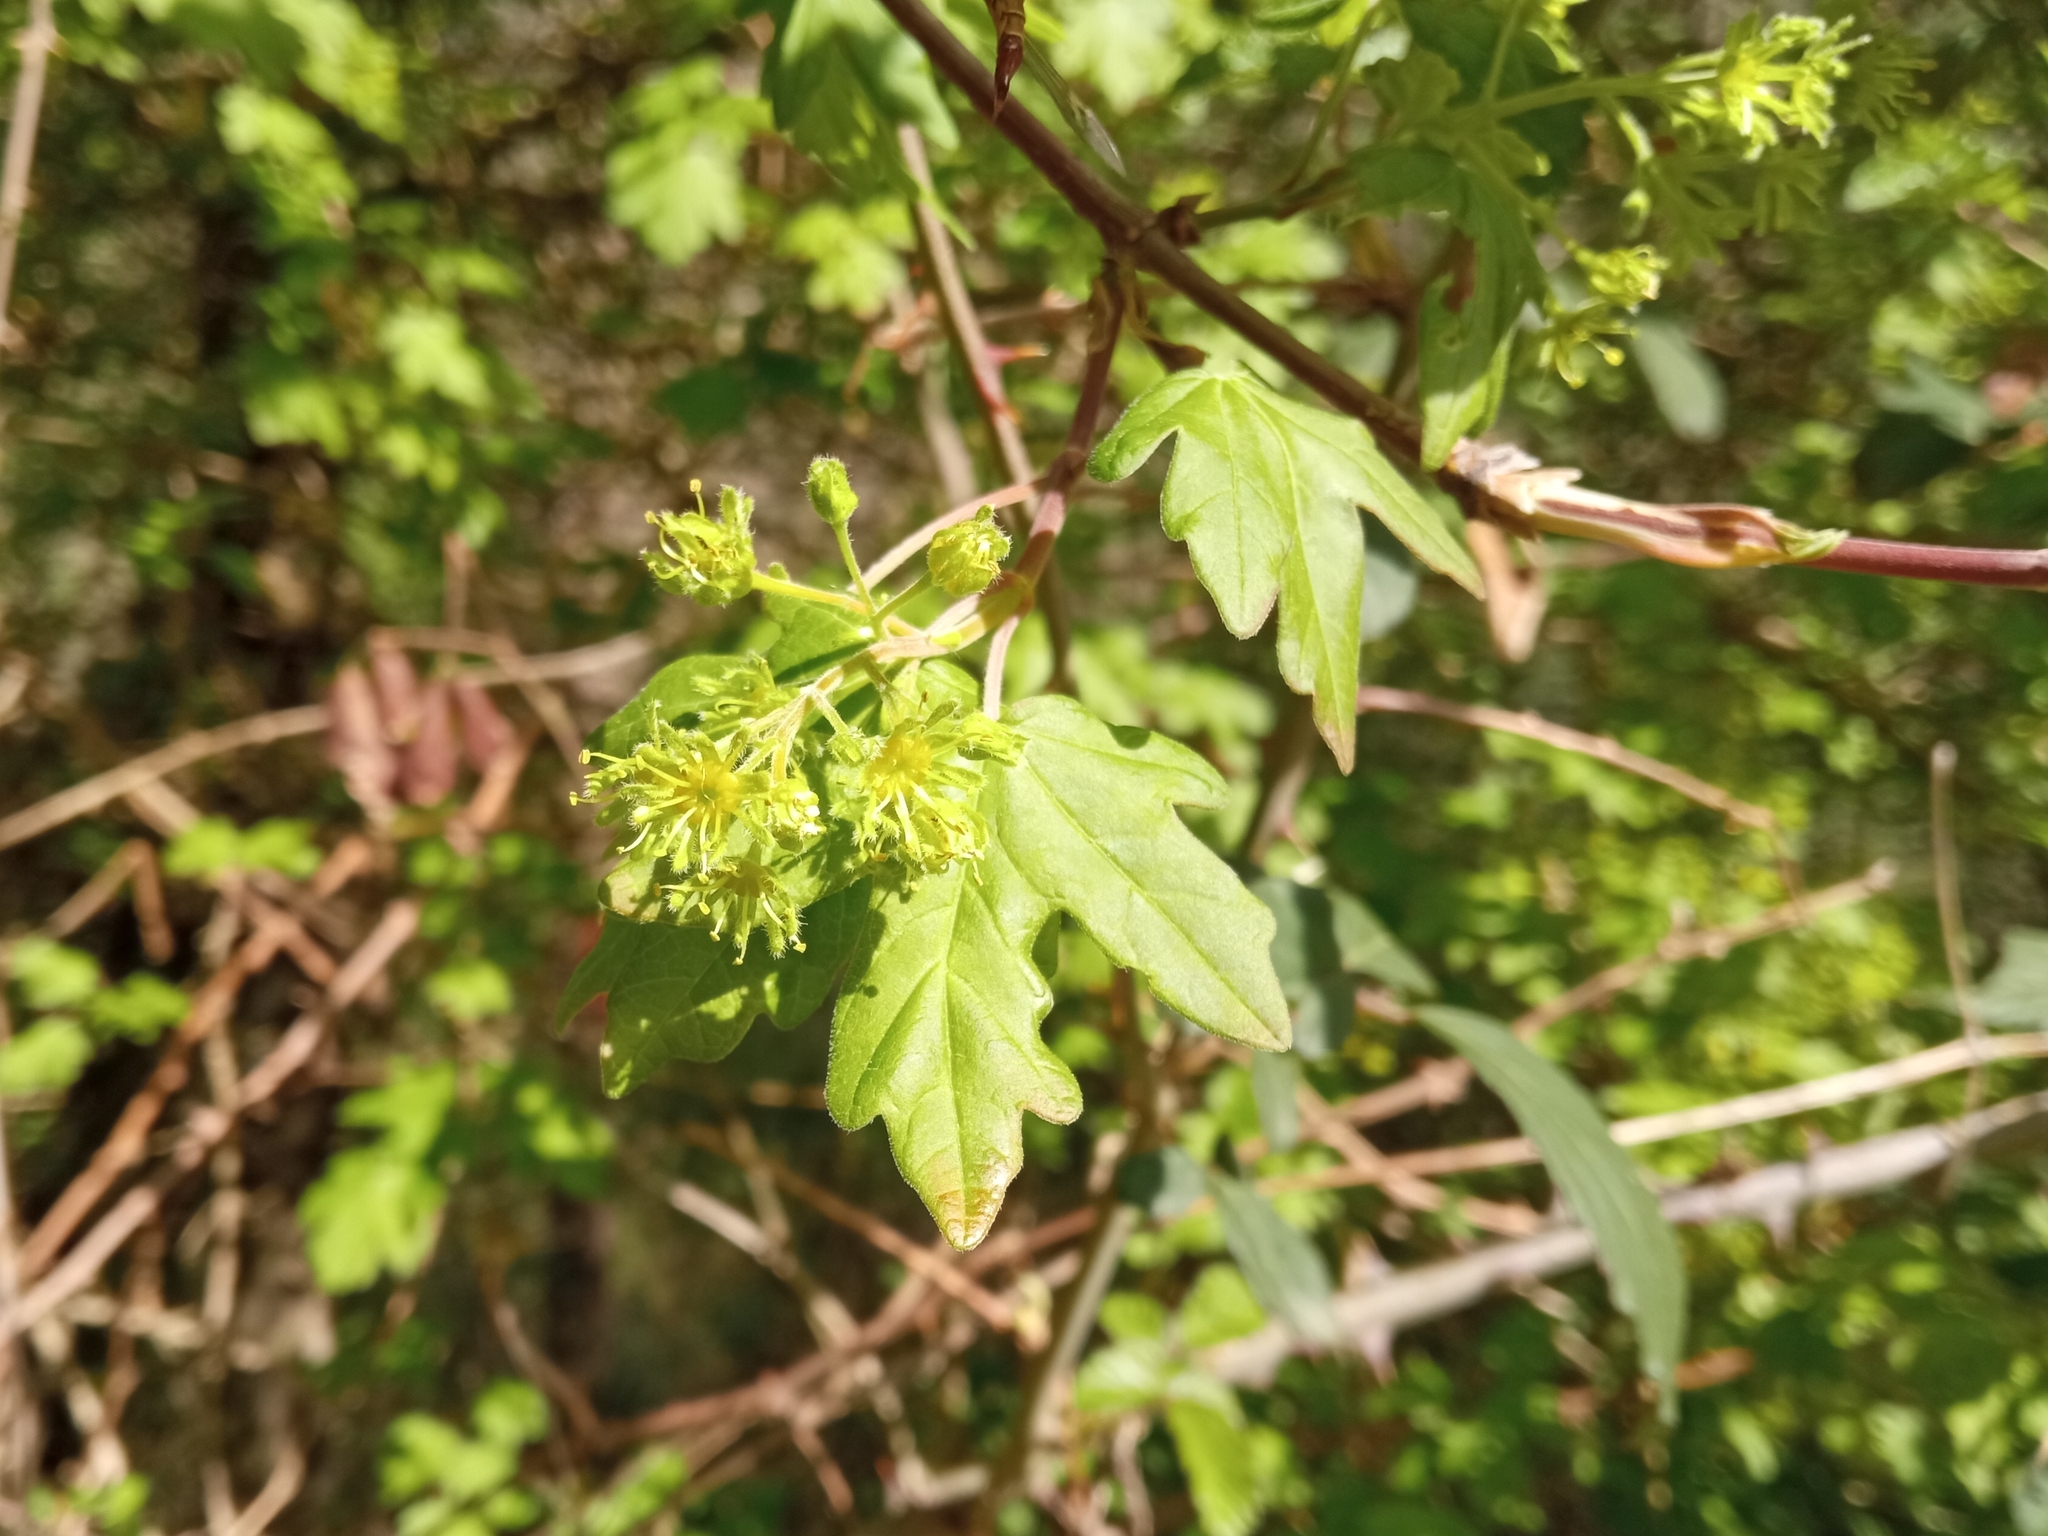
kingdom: Plantae
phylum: Tracheophyta
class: Magnoliopsida
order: Sapindales
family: Sapindaceae
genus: Acer
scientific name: Acer campestre
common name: Field maple
